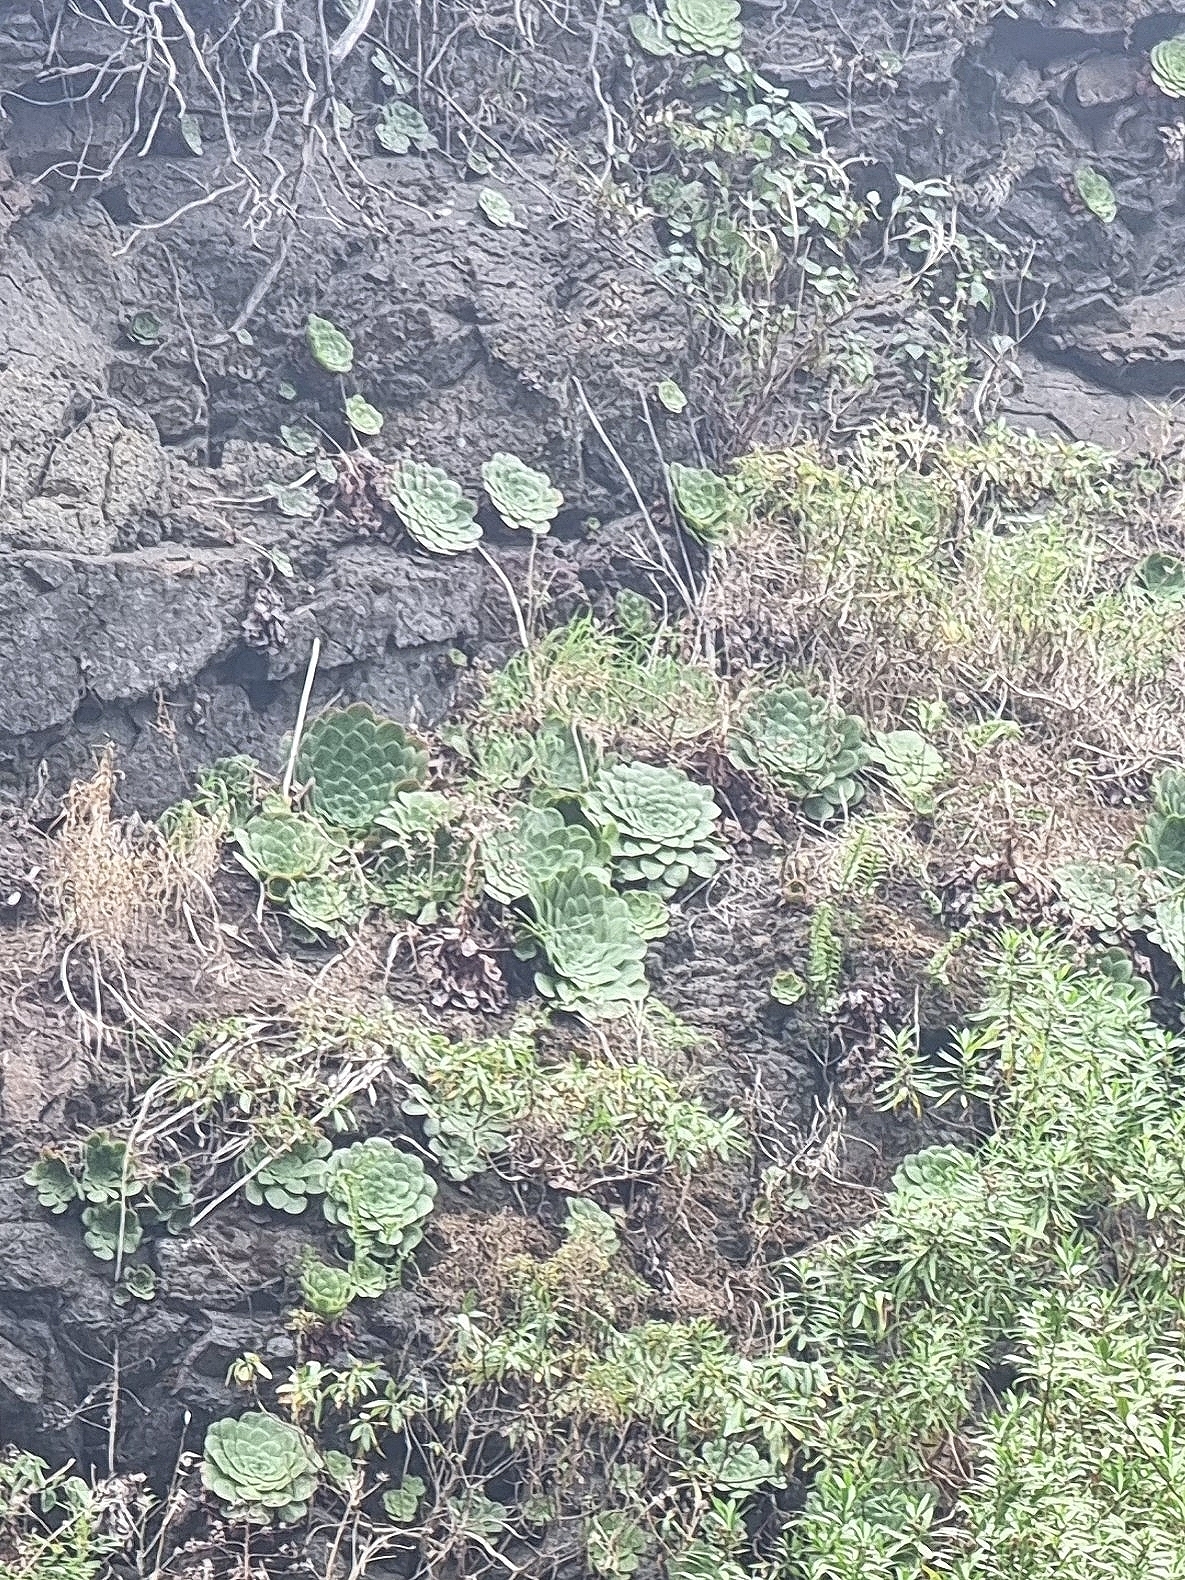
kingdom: Plantae
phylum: Tracheophyta
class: Magnoliopsida
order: Saxifragales
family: Crassulaceae
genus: Aeonium
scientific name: Aeonium glandulosum
